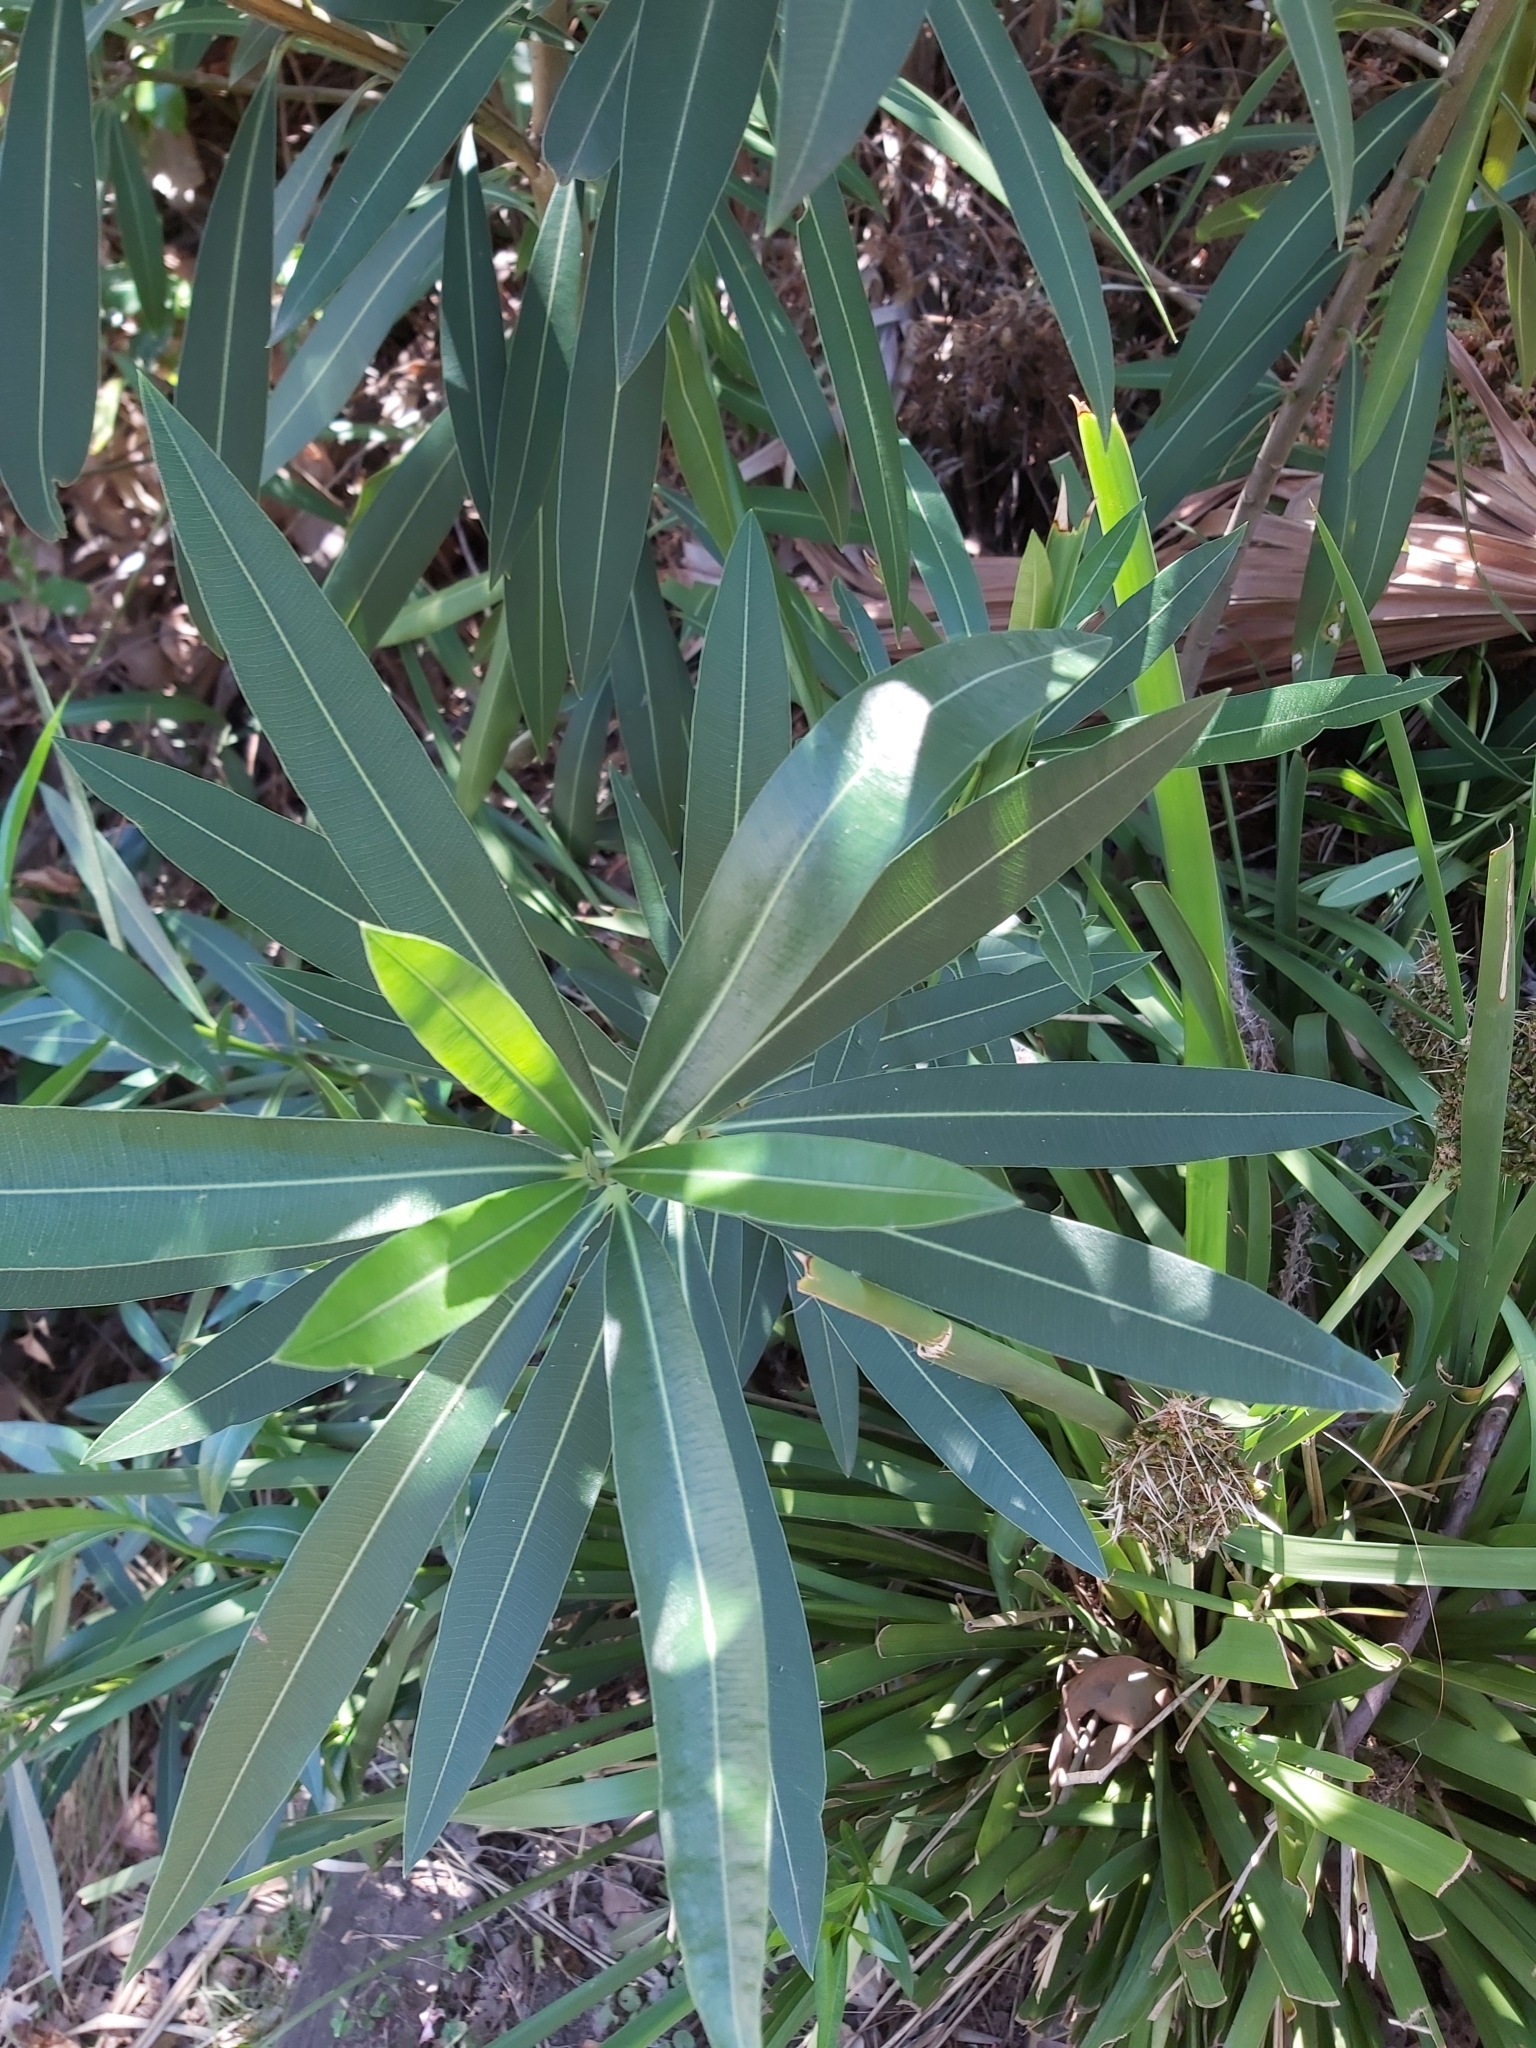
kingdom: Plantae
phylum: Tracheophyta
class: Magnoliopsida
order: Gentianales
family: Apocynaceae
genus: Nerium
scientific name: Nerium oleander
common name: Oleander
